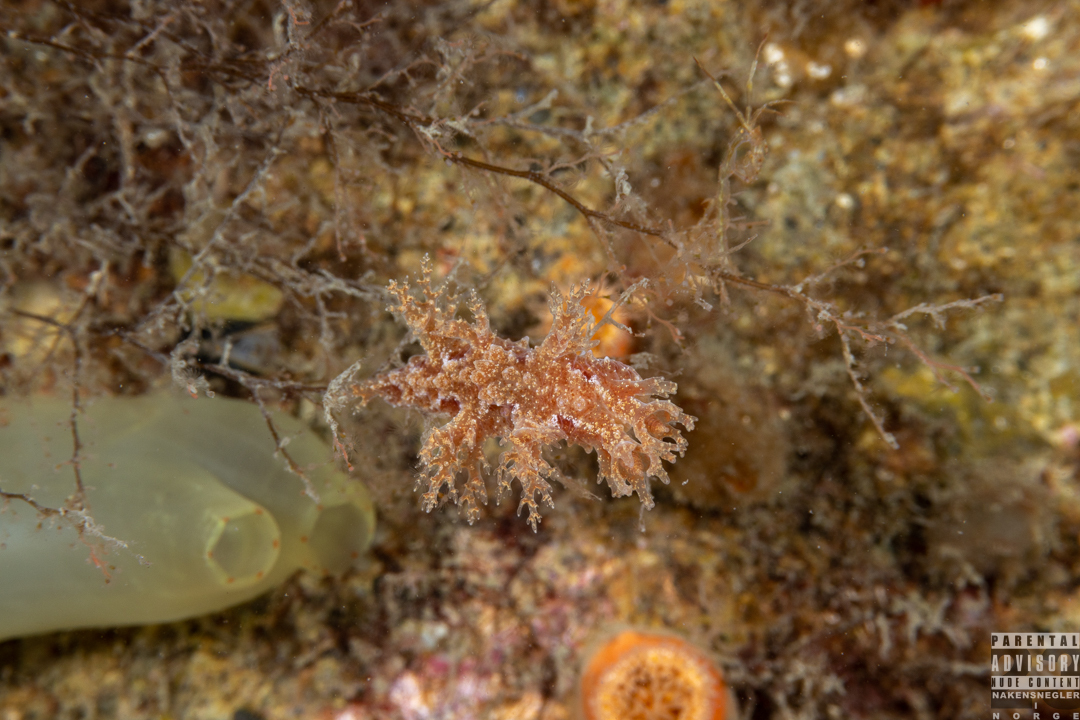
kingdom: Animalia
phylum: Mollusca
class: Gastropoda
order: Nudibranchia
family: Dendronotidae
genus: Dendronotus
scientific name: Dendronotus frondosus
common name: Bushy-backed nudibranch
